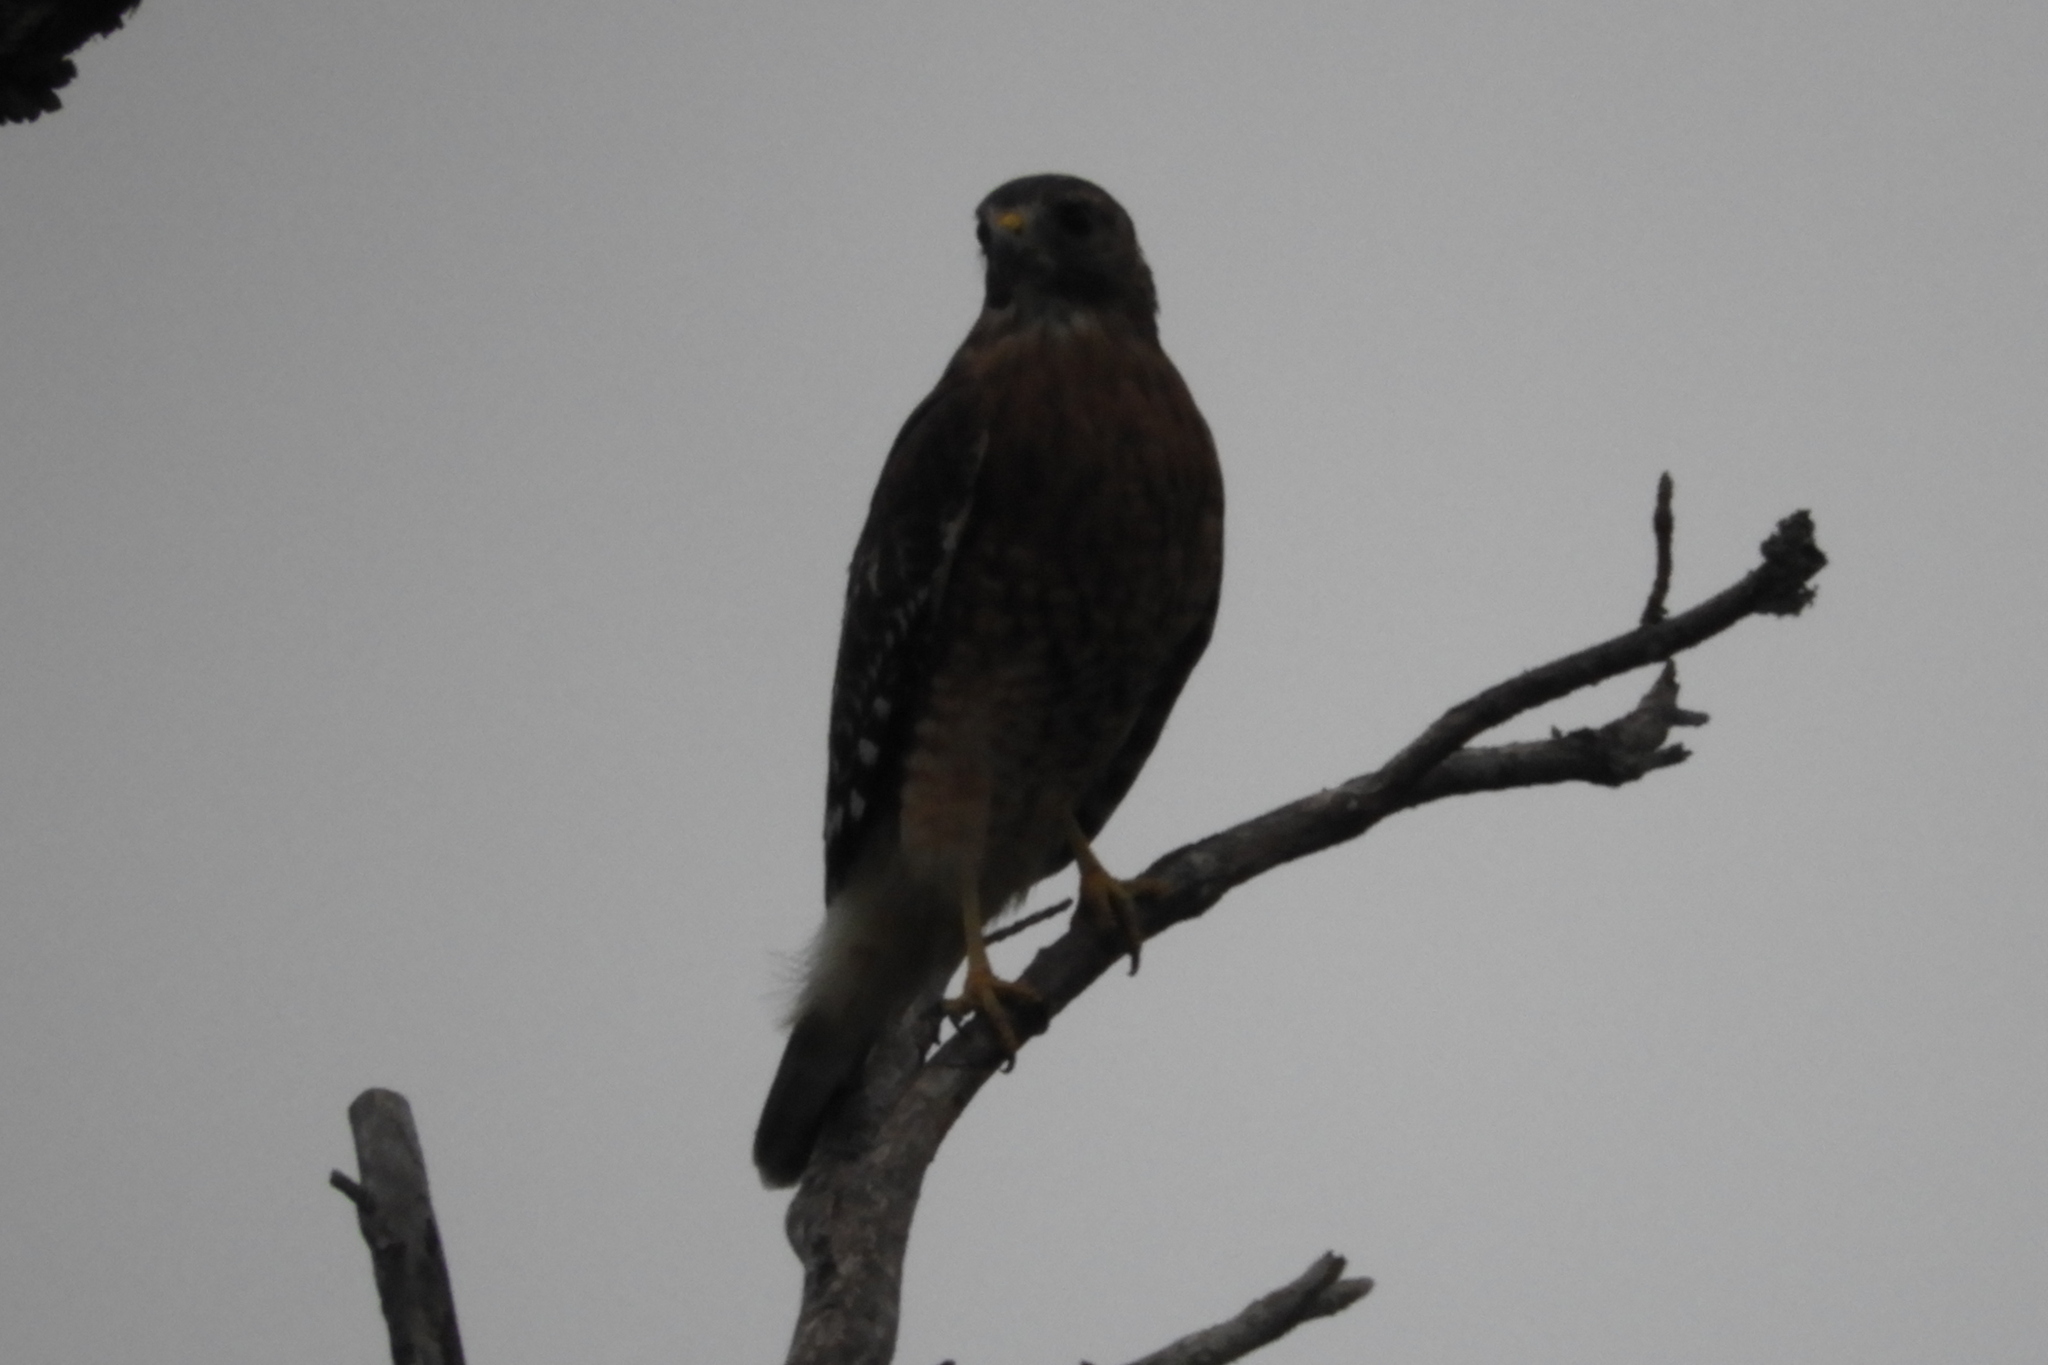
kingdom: Animalia
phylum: Chordata
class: Aves
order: Accipitriformes
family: Accipitridae
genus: Buteo
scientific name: Buteo lineatus
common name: Red-shouldered hawk
